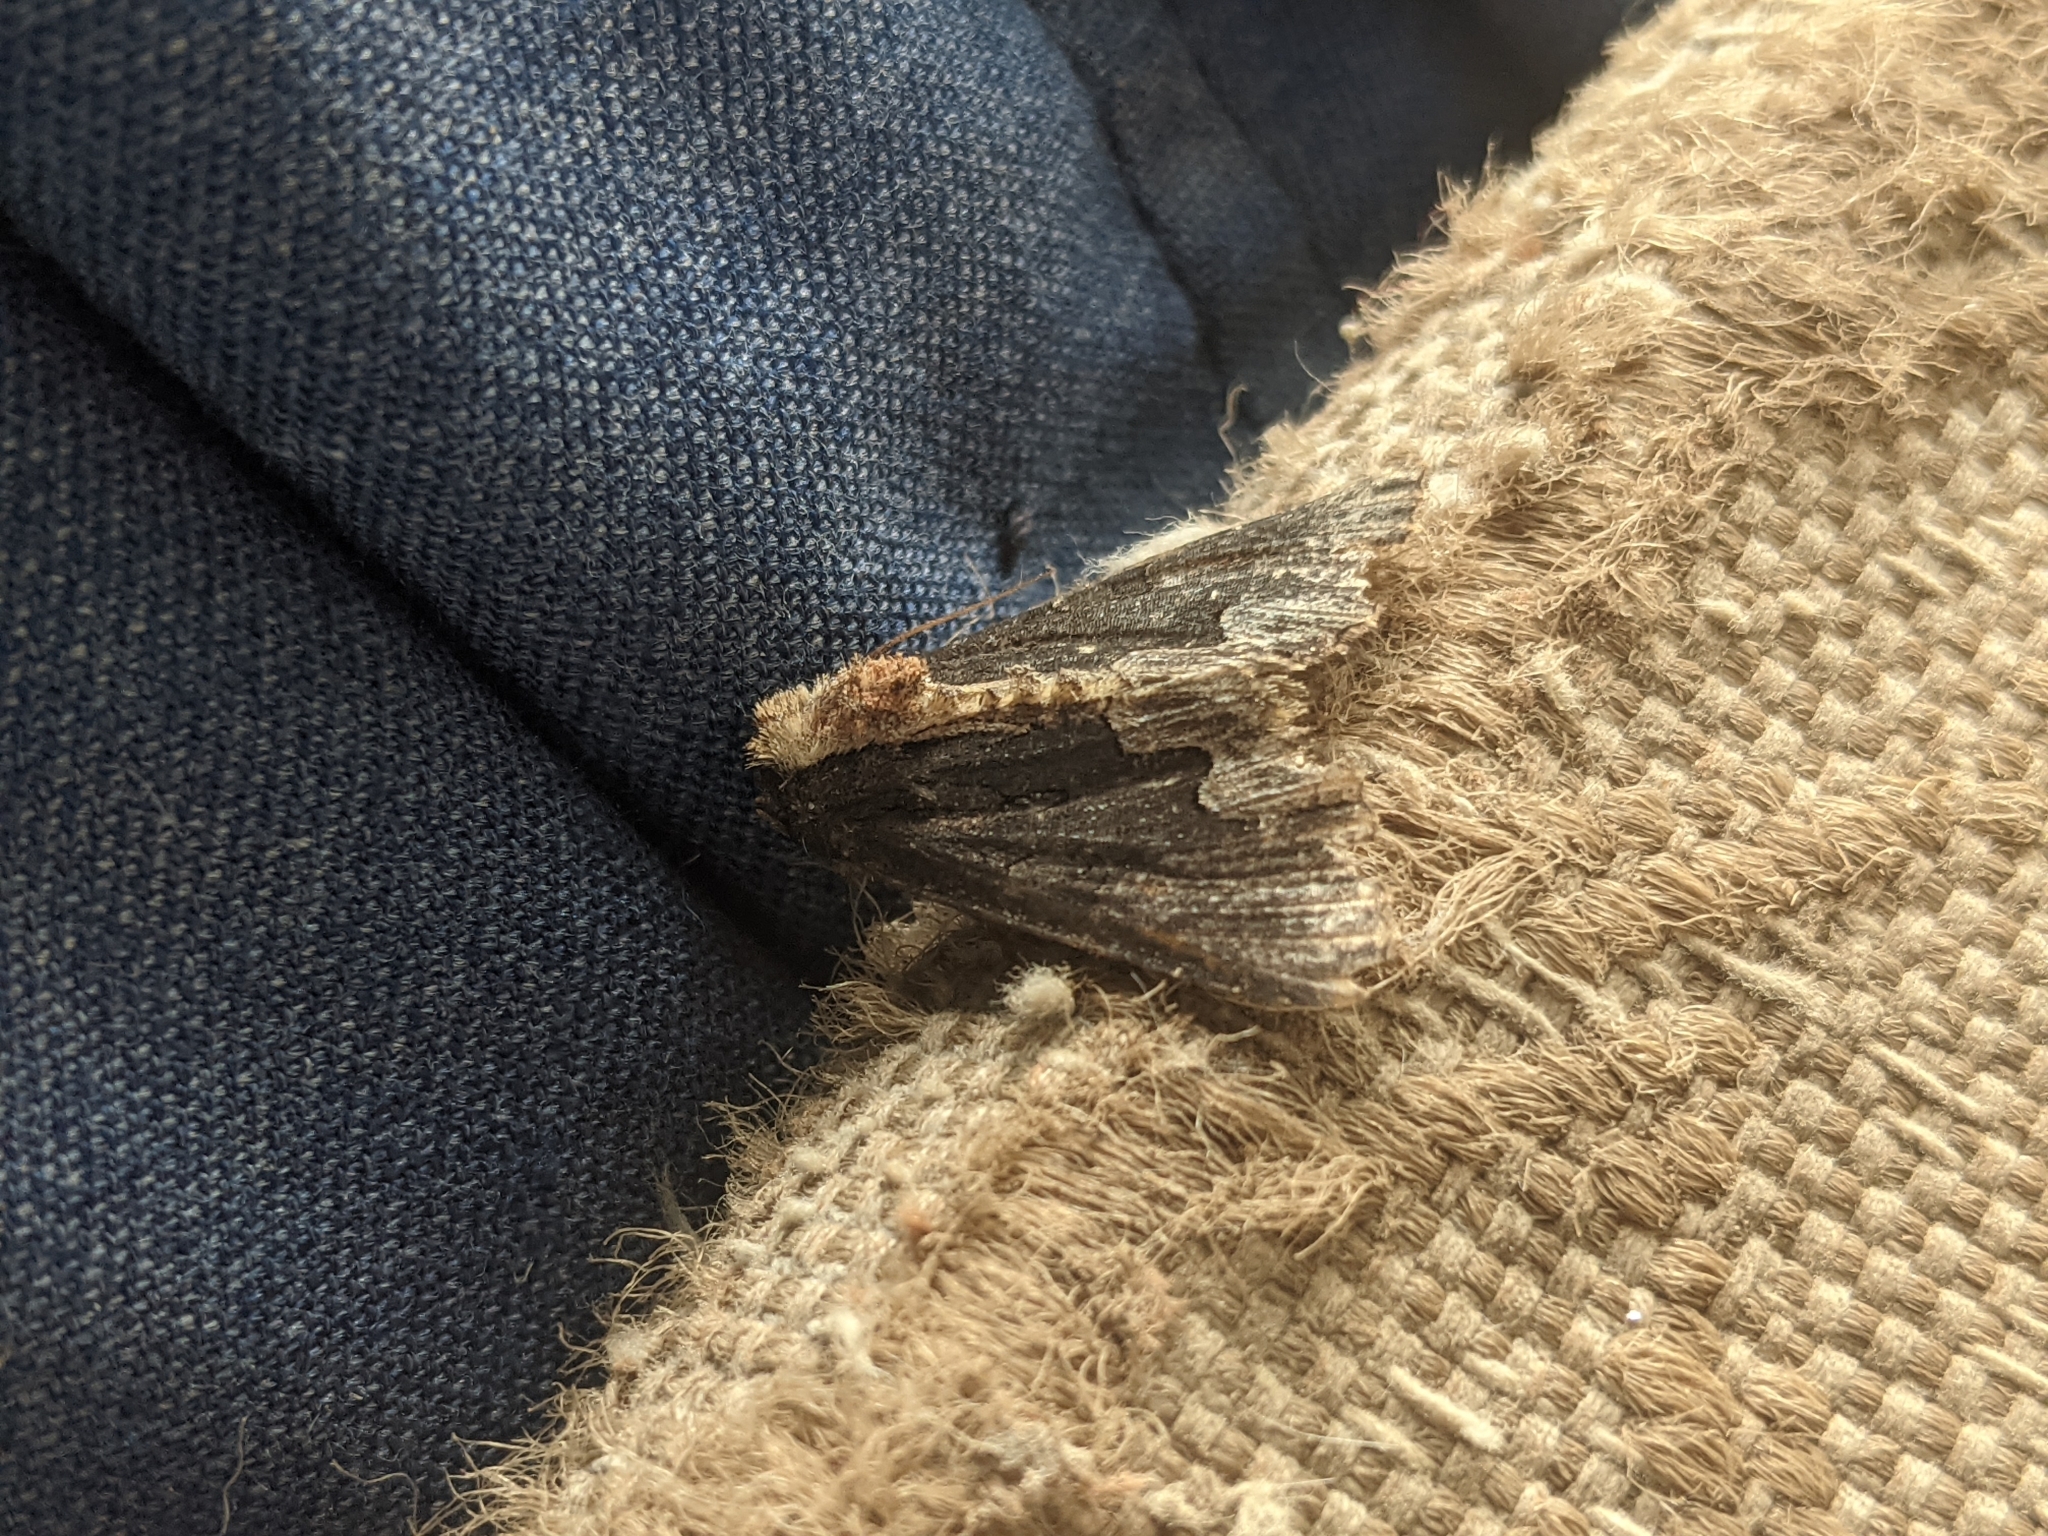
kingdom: Animalia
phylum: Arthropoda
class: Insecta
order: Lepidoptera
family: Noctuidae
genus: Dypterygia
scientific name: Dypterygia scabriuscula
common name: Bird's wing
